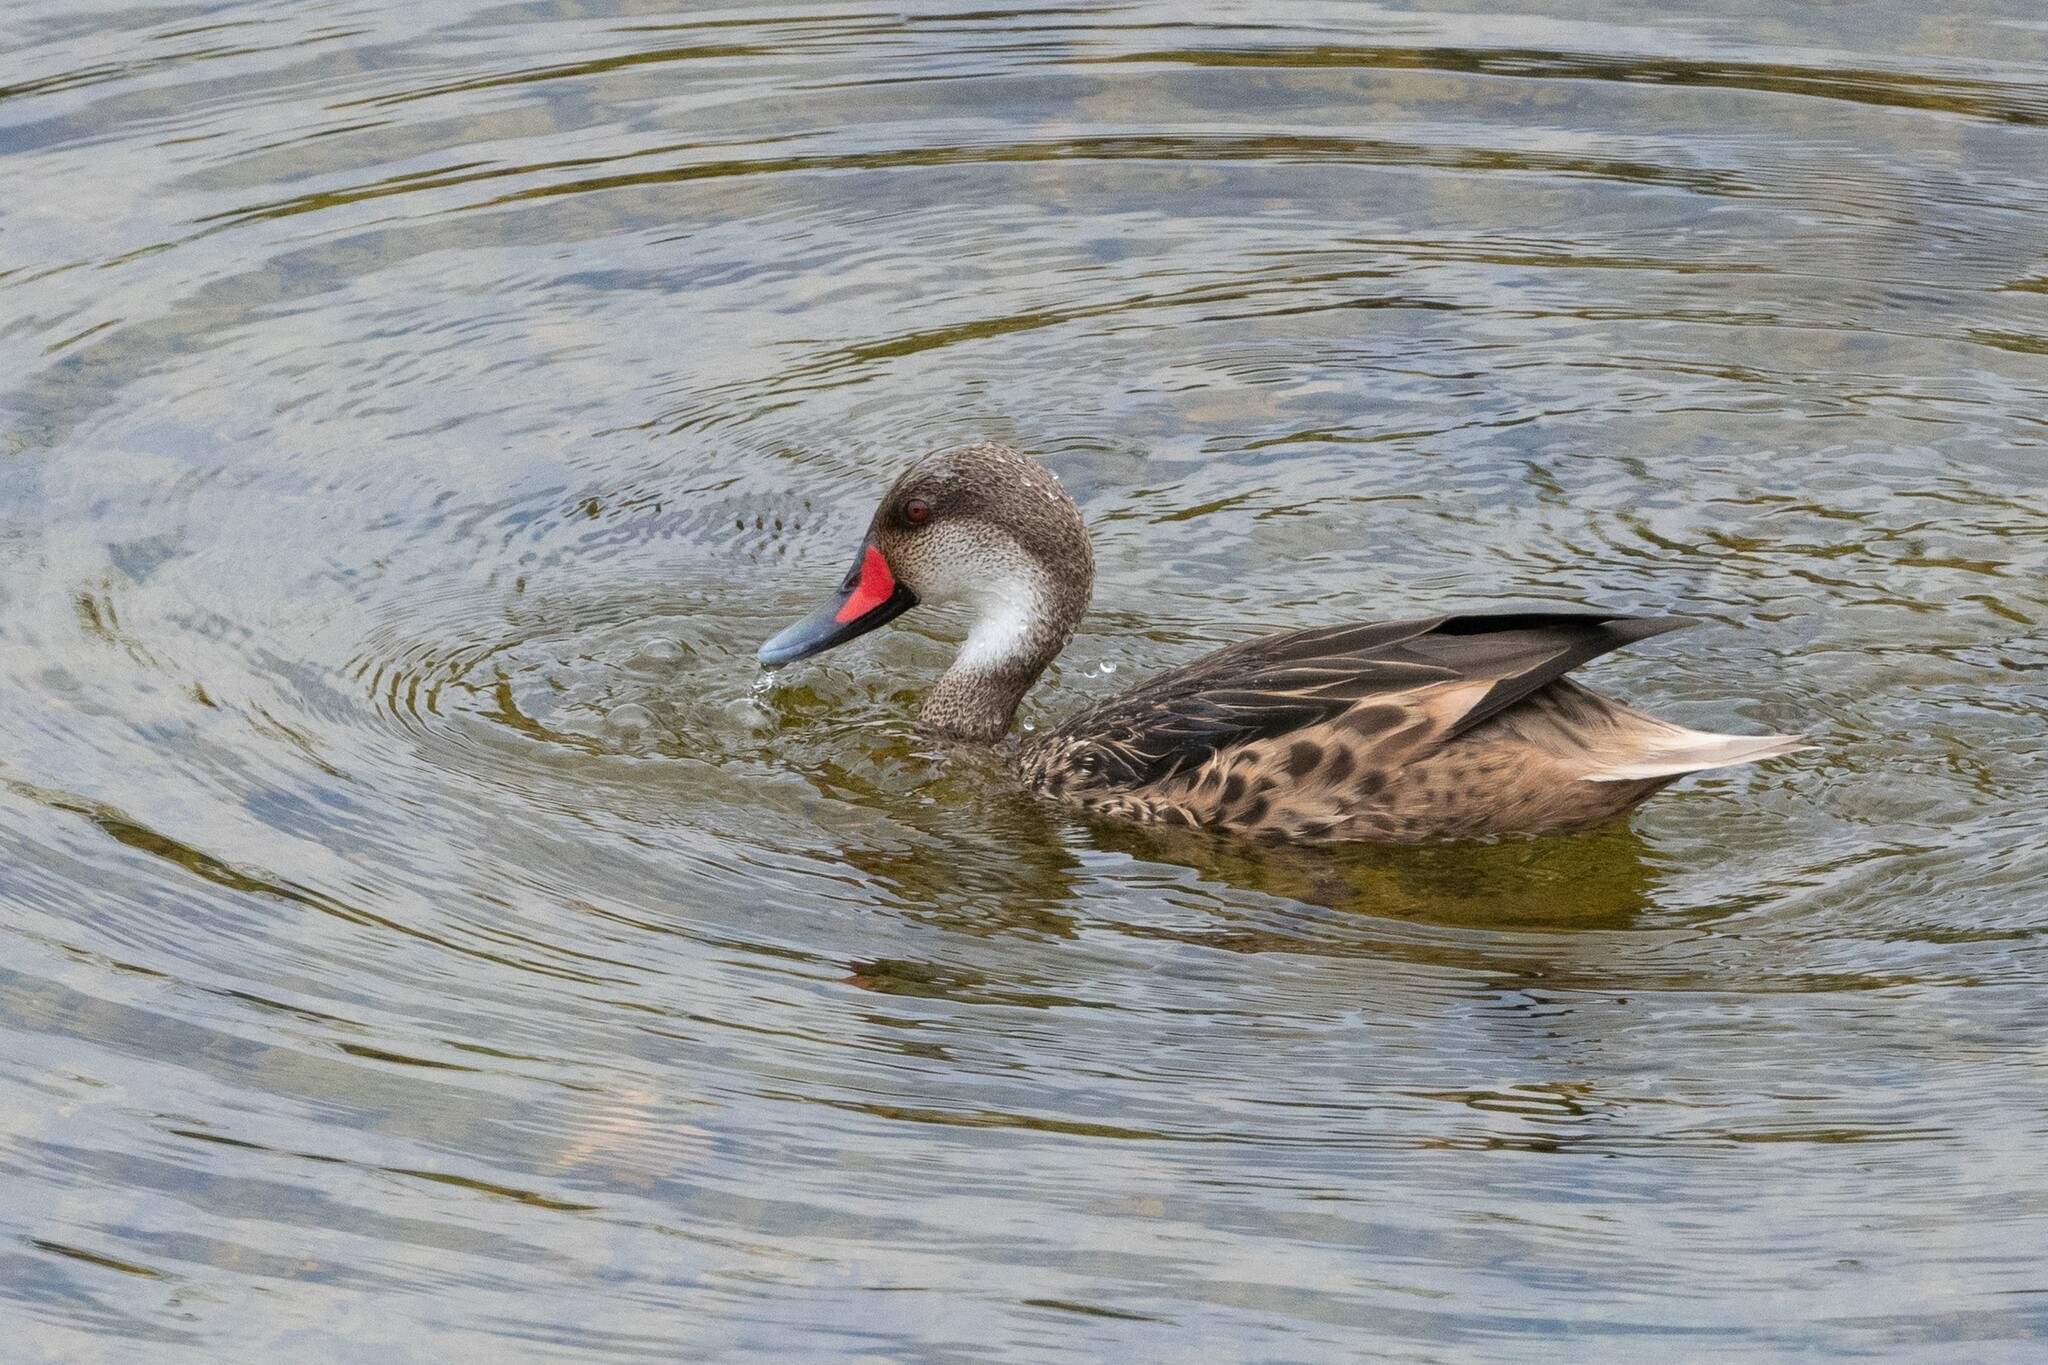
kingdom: Animalia
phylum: Chordata
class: Aves
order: Anseriformes
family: Anatidae
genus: Anas
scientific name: Anas bahamensis
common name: White-cheeked pintail
